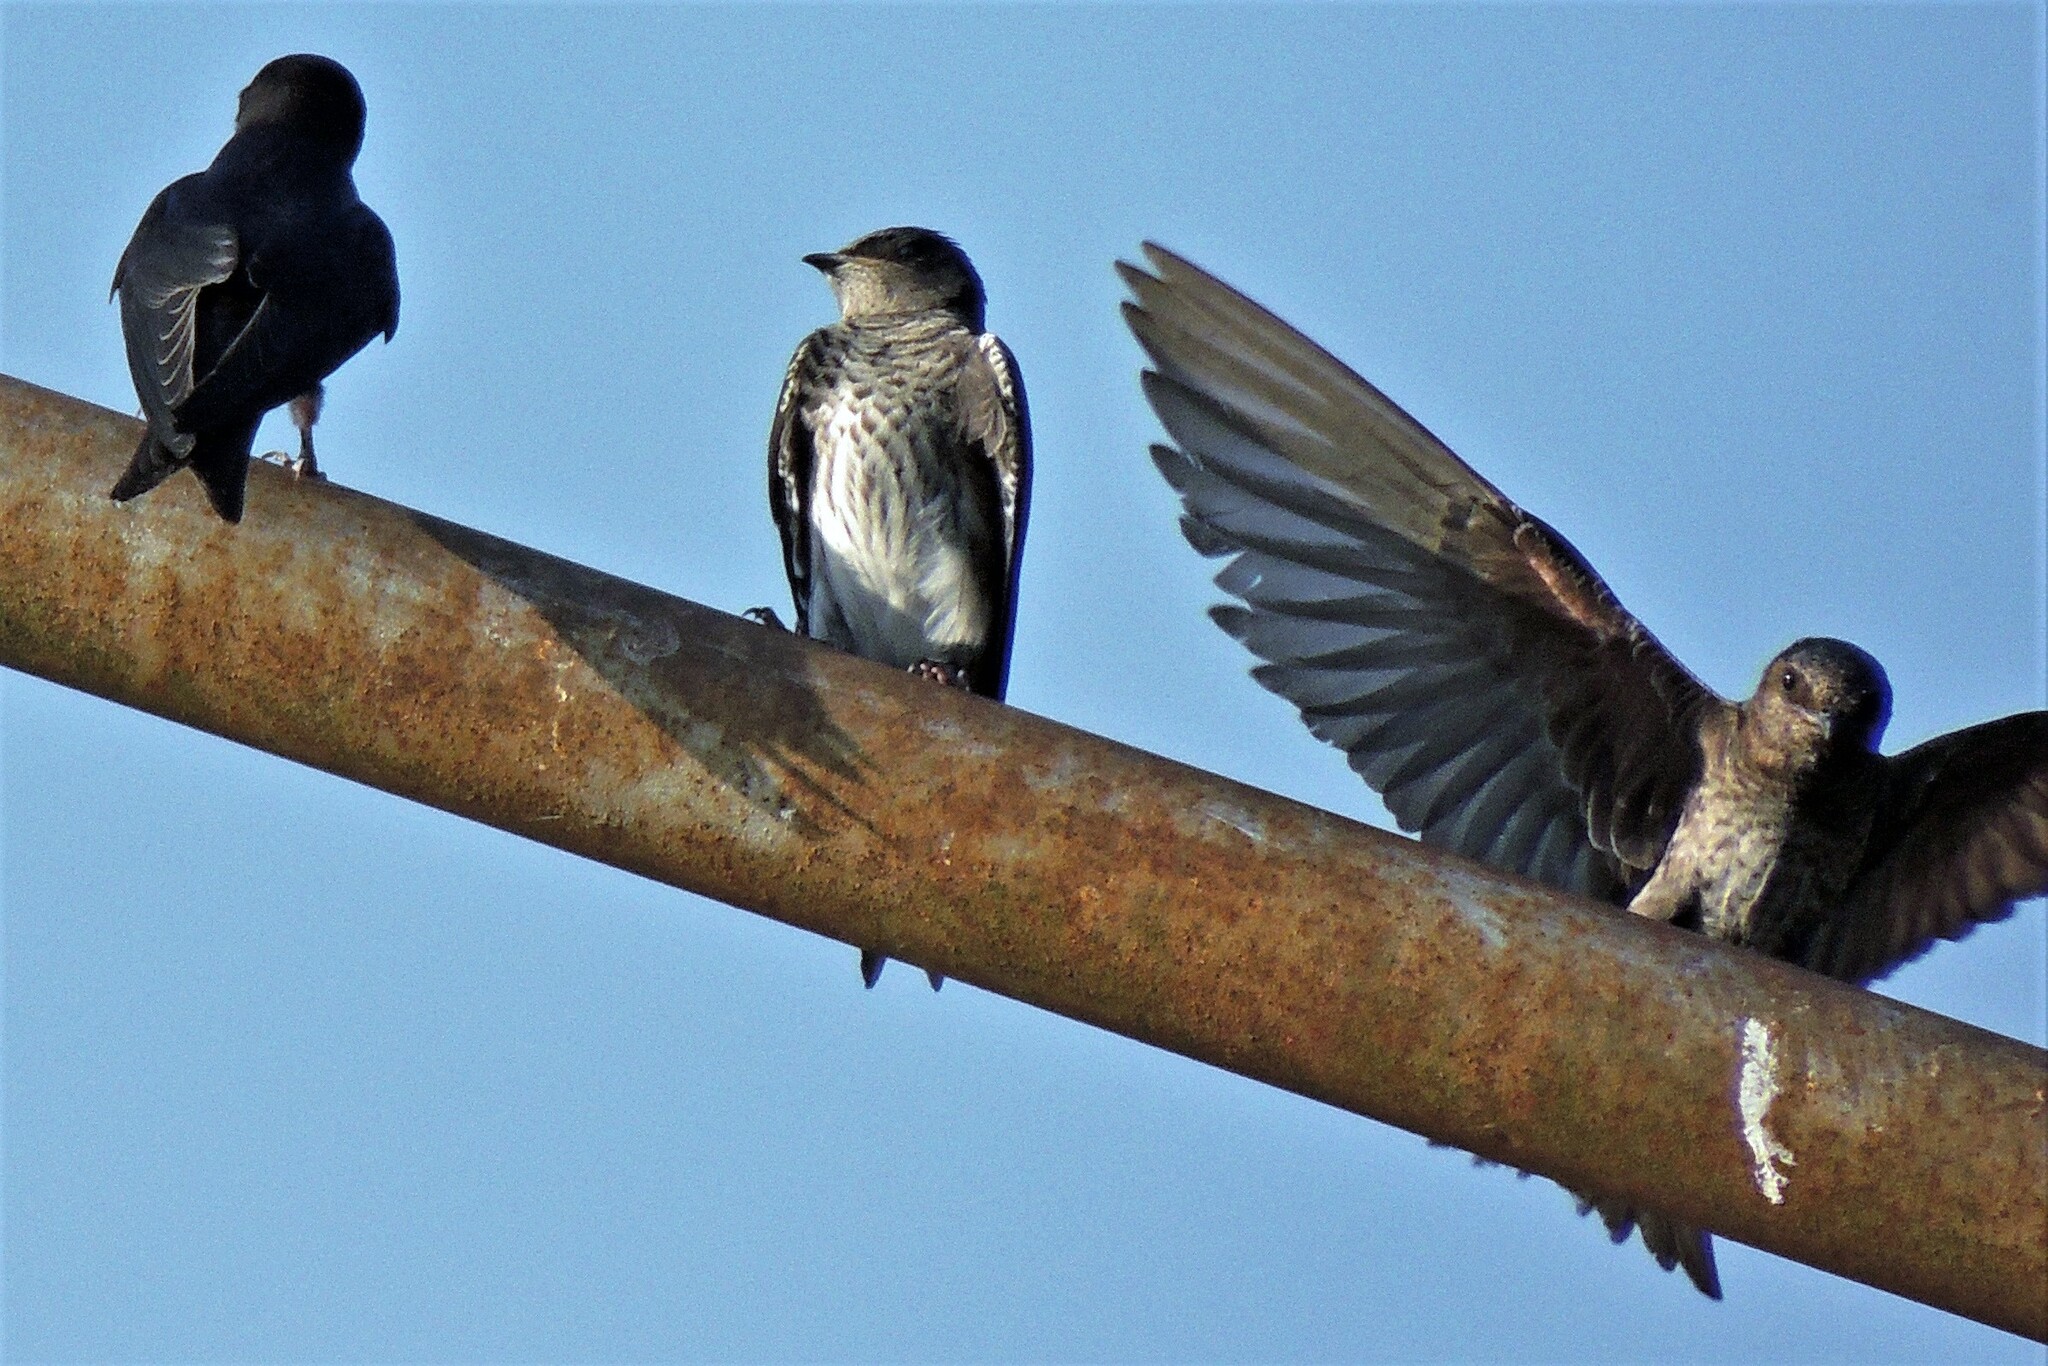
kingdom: Animalia
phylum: Chordata
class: Aves
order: Passeriformes
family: Hirundinidae
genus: Progne
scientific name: Progne elegans
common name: Southern martin
